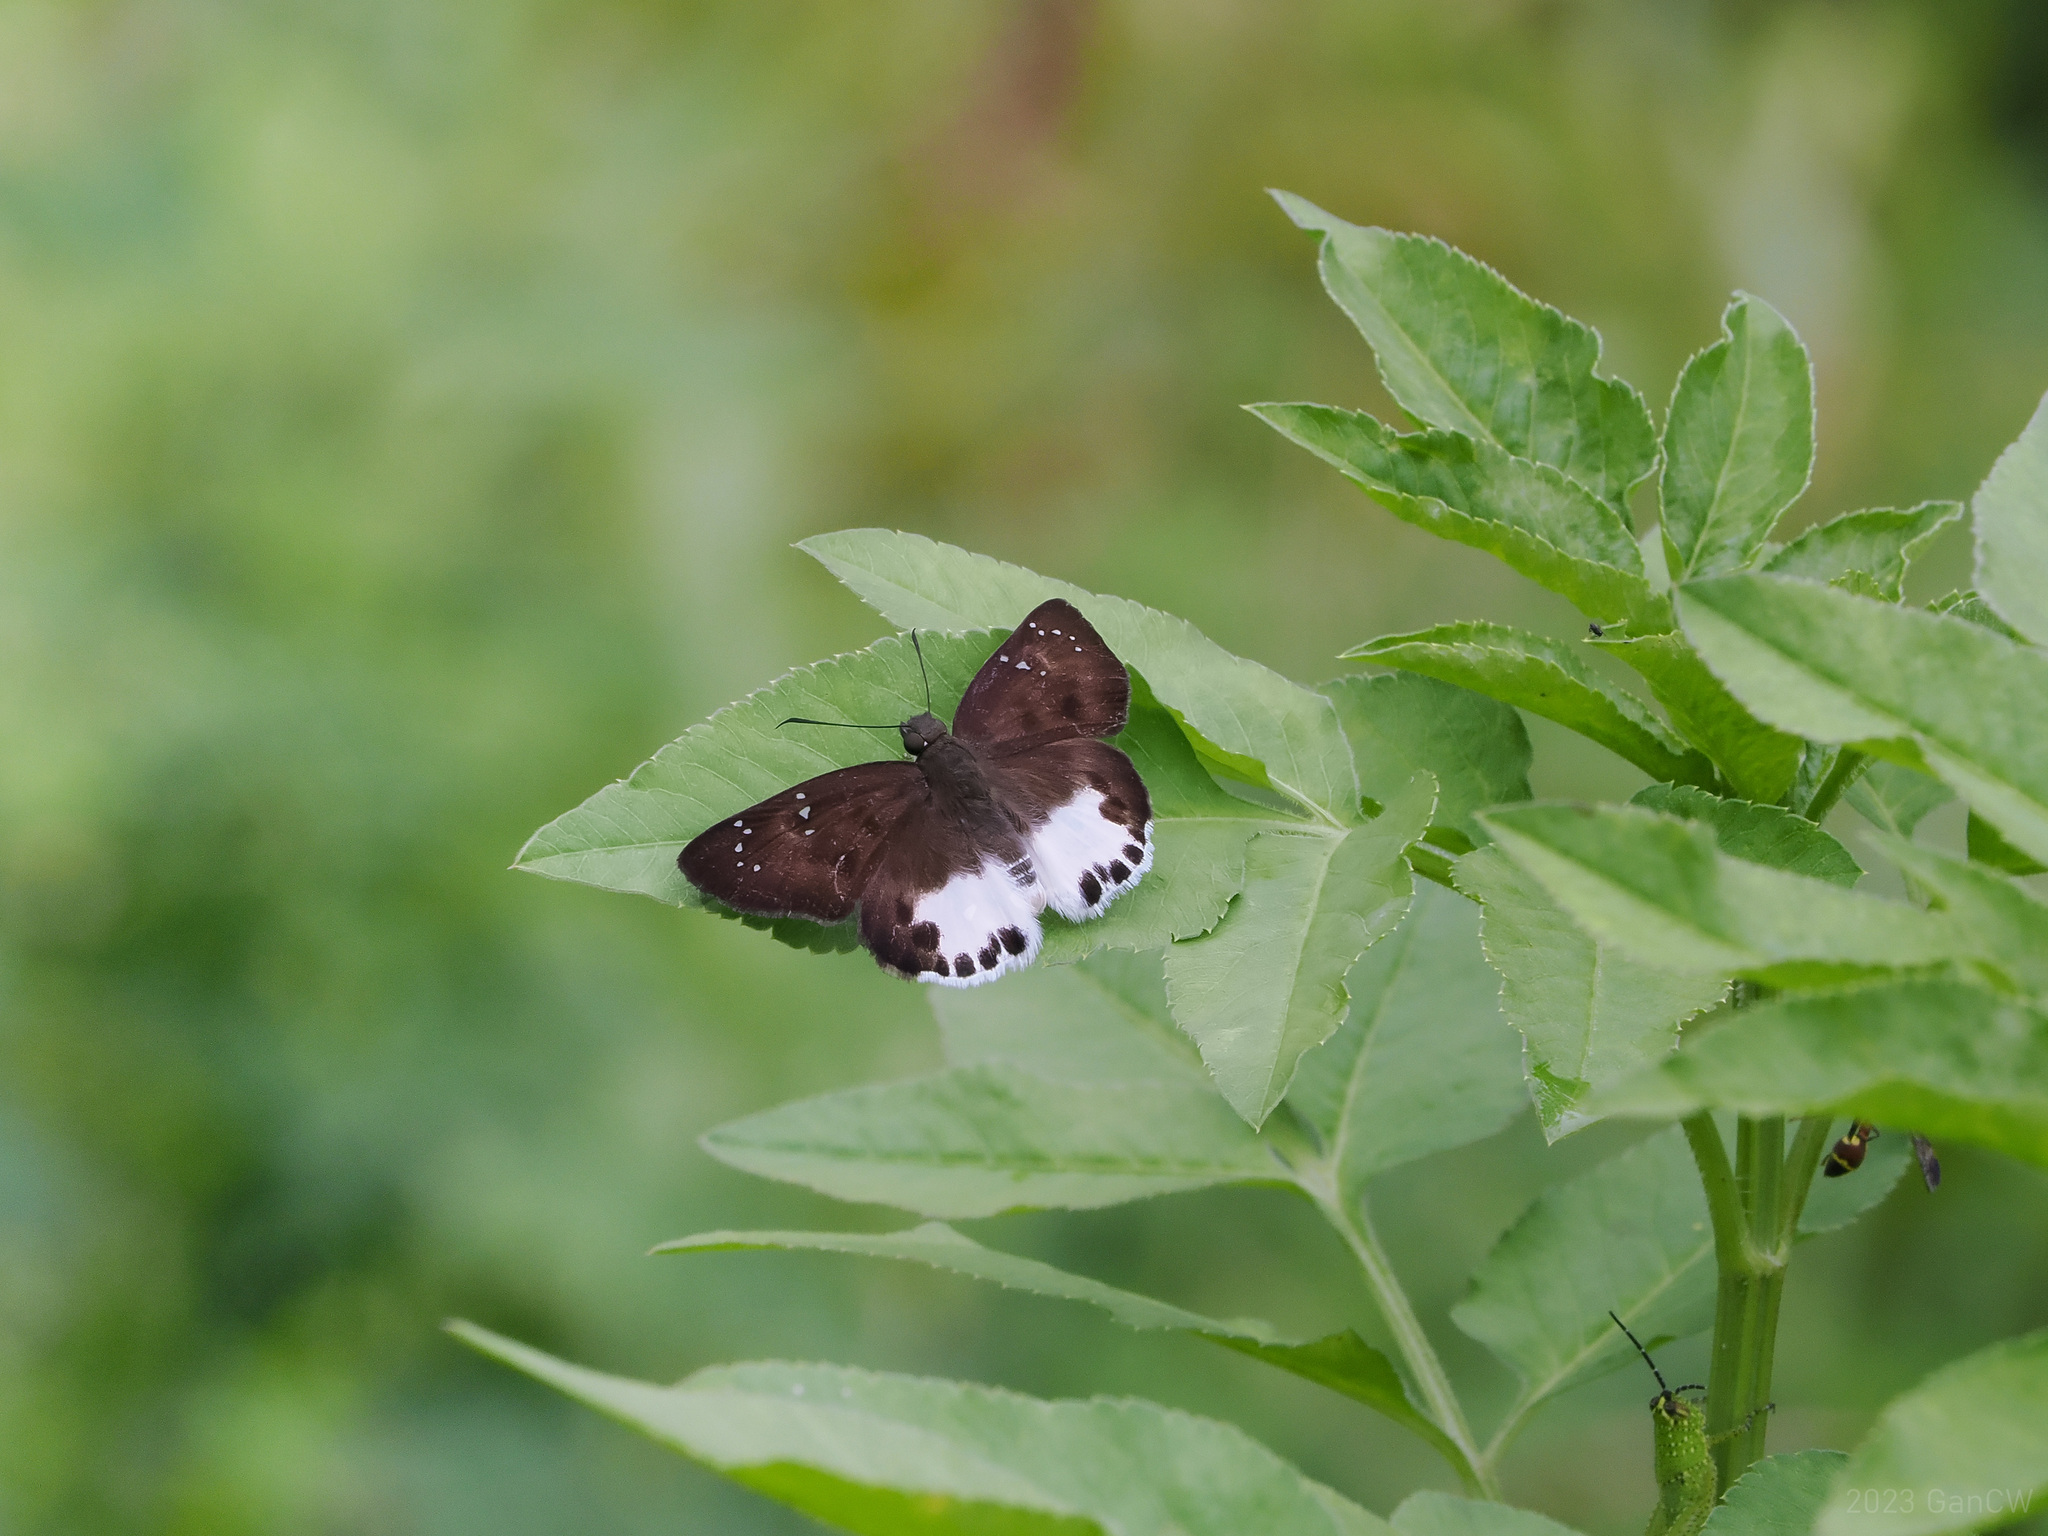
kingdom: Animalia
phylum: Arthropoda
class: Insecta
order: Lepidoptera
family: Hesperiidae
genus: Tagiades
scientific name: Tagiades litigiosa
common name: Water snow flat
